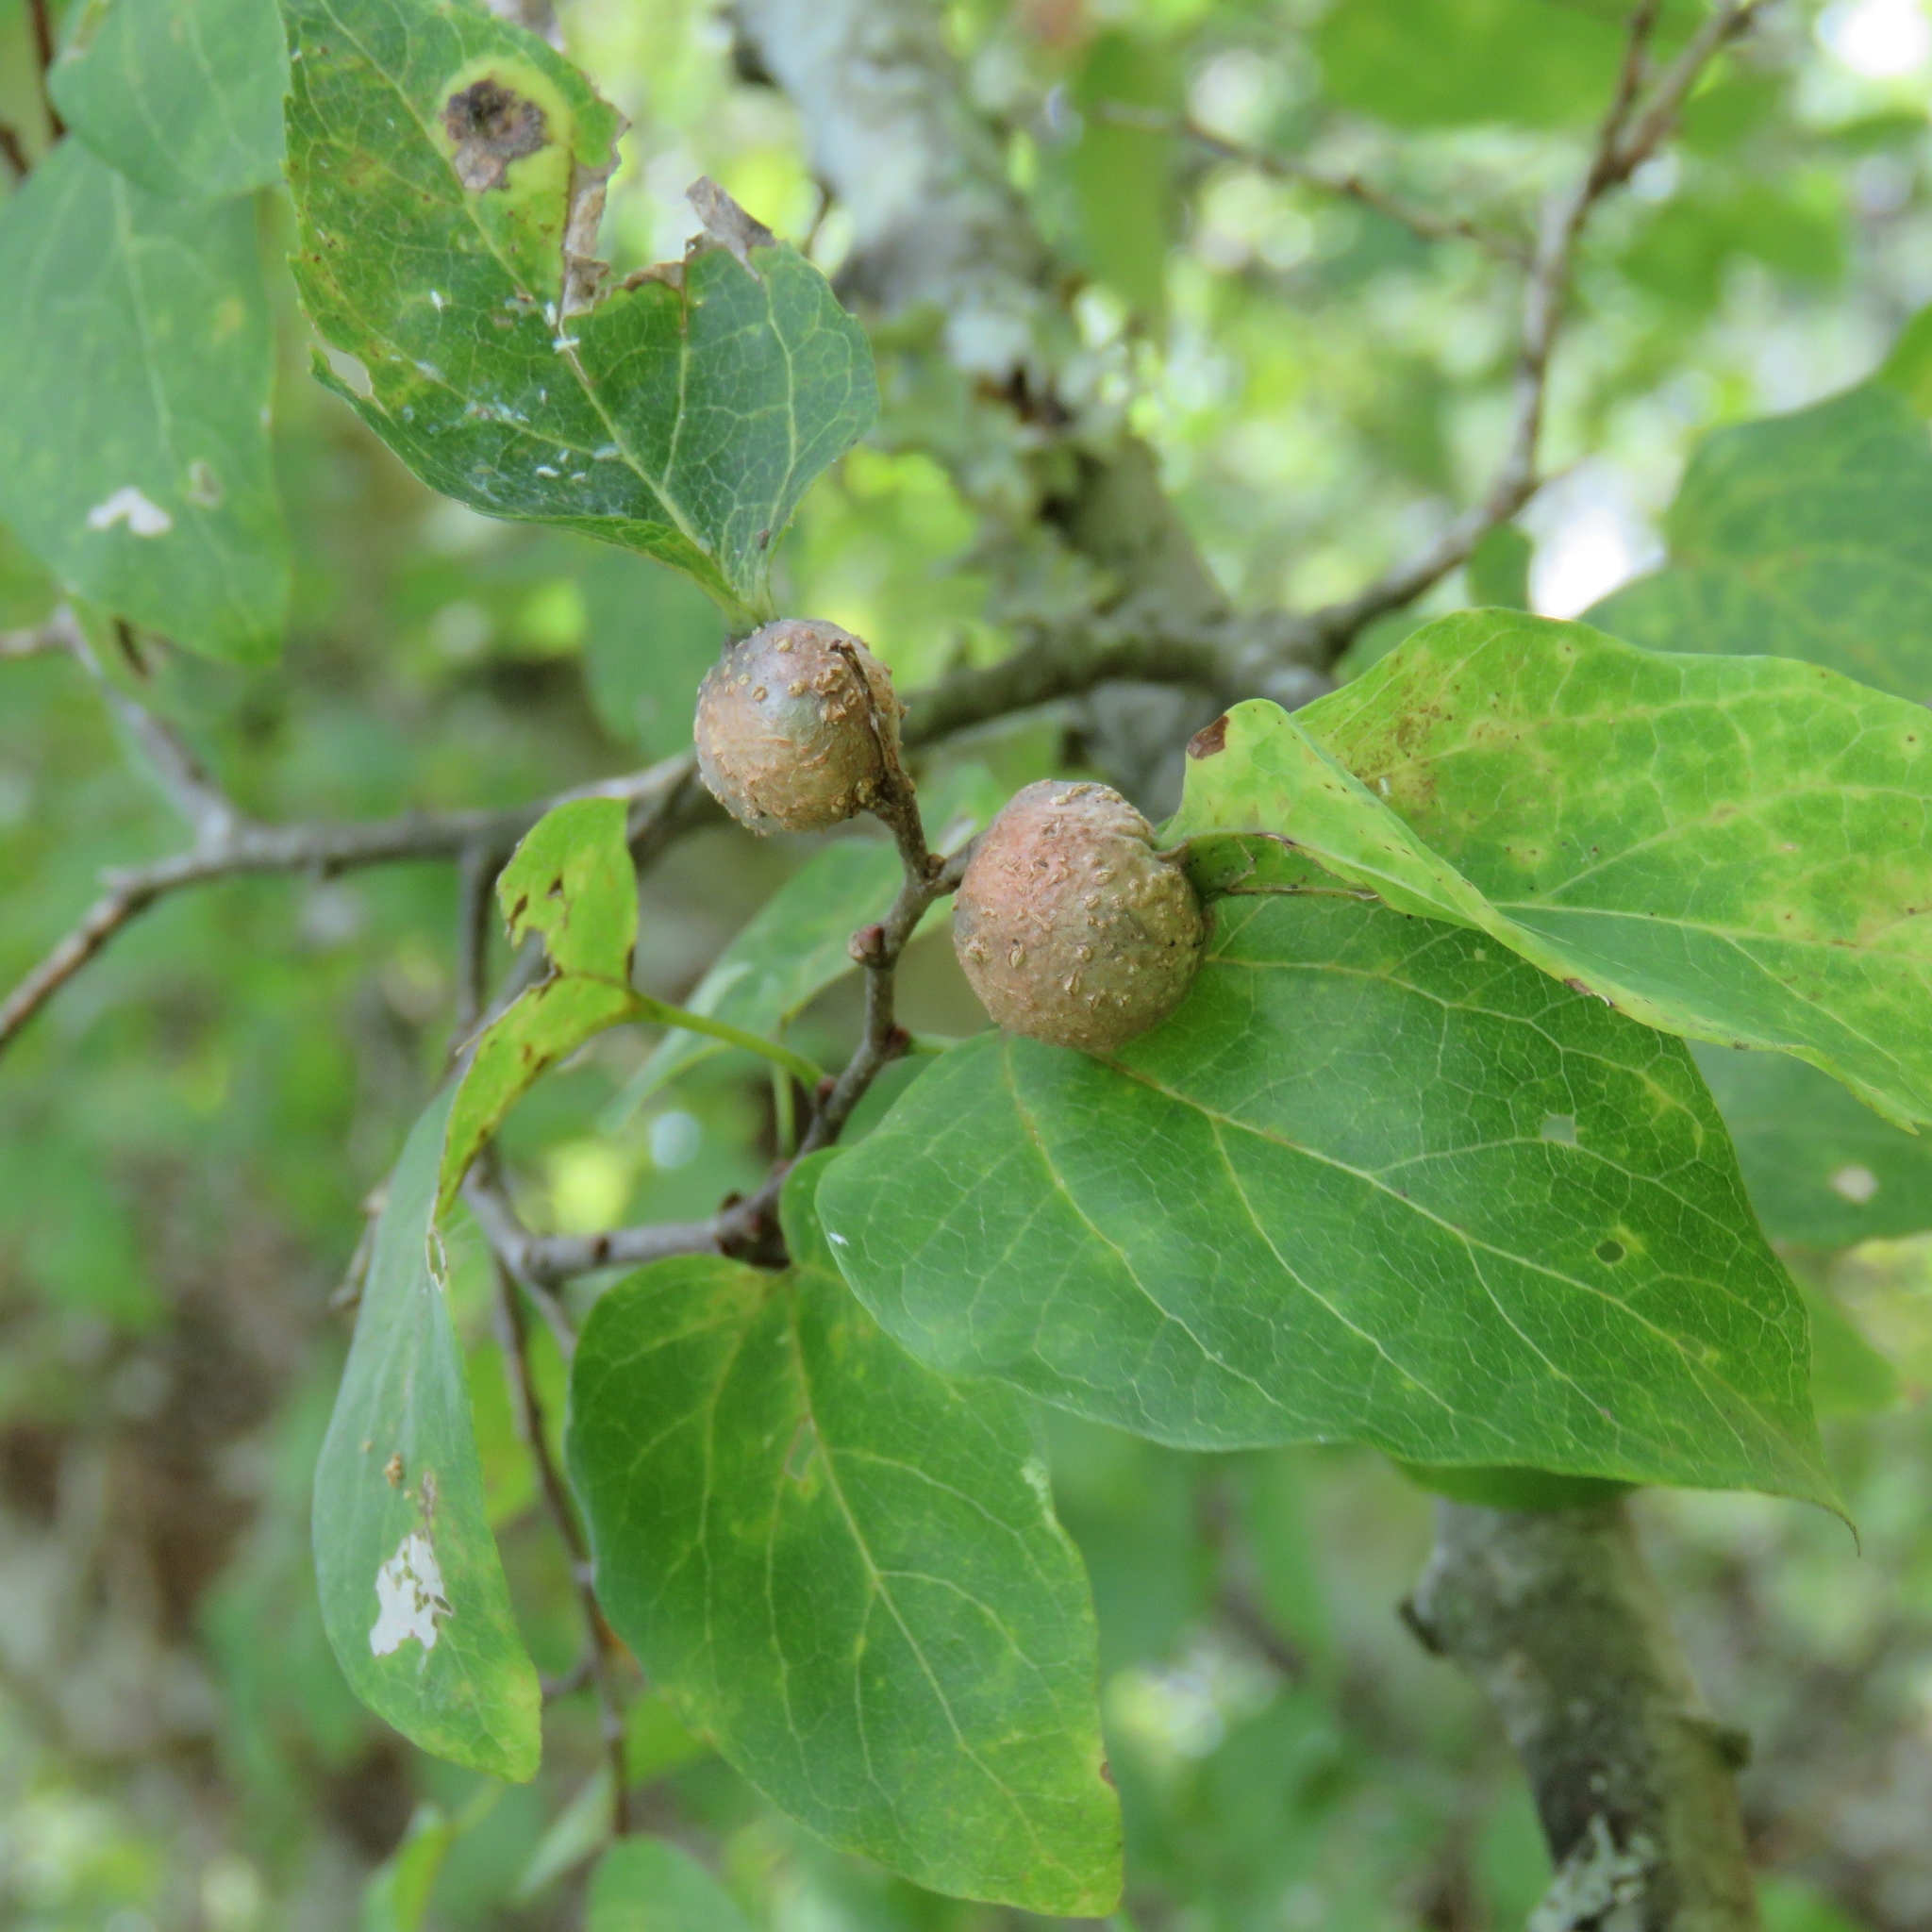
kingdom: Plantae
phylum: Tracheophyta
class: Magnoliopsida
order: Rosales
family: Cannabaceae
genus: Celtis
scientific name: Celtis laevigata
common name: Sugarberry
